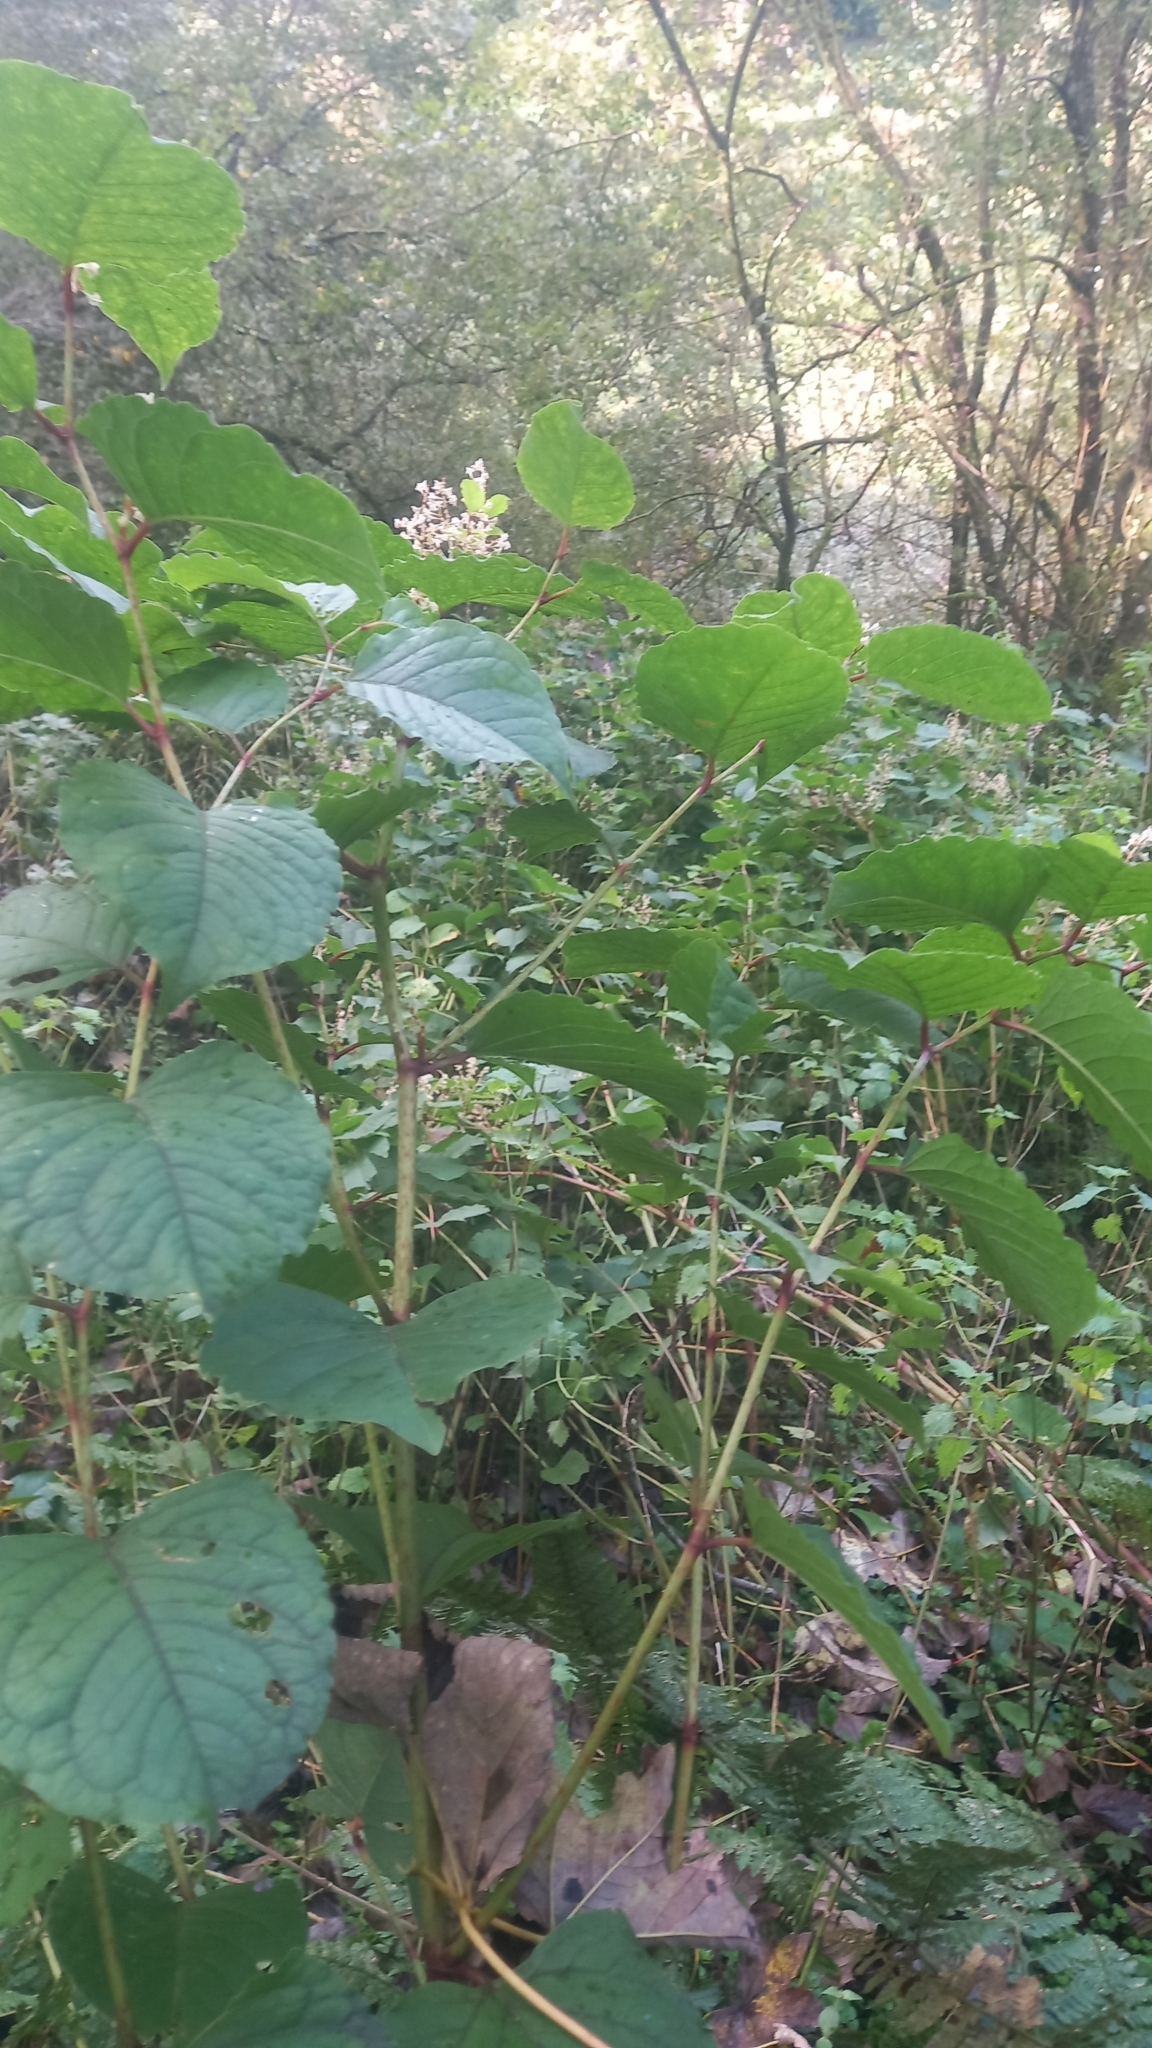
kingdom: Plantae
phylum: Tracheophyta
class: Magnoliopsida
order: Caryophyllales
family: Polygonaceae
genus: Reynoutria
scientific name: Reynoutria japonica
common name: Japanese knotweed
